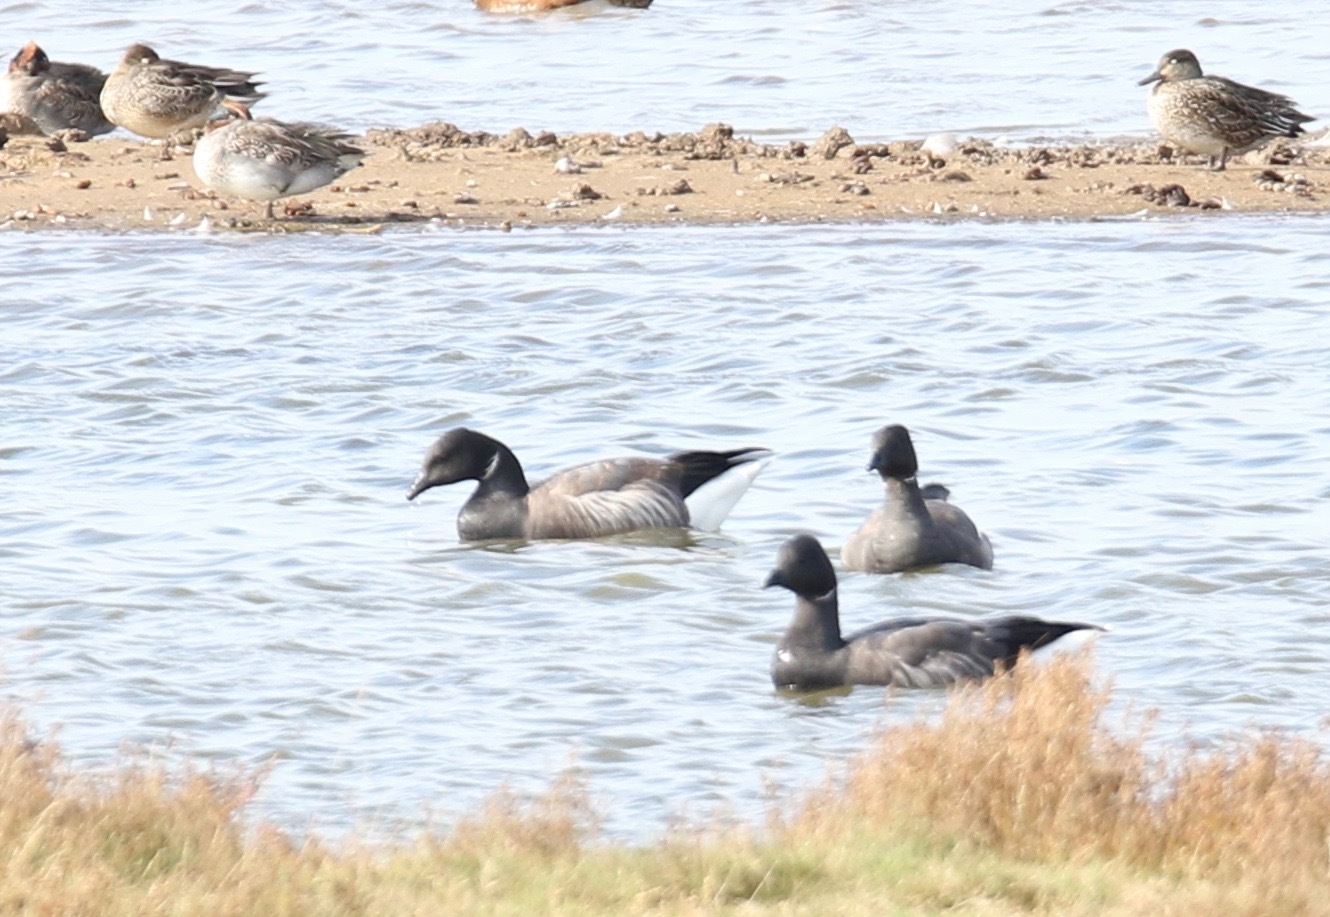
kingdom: Animalia
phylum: Chordata
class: Aves
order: Anseriformes
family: Anatidae
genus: Branta
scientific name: Branta bernicla
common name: Brant goose
